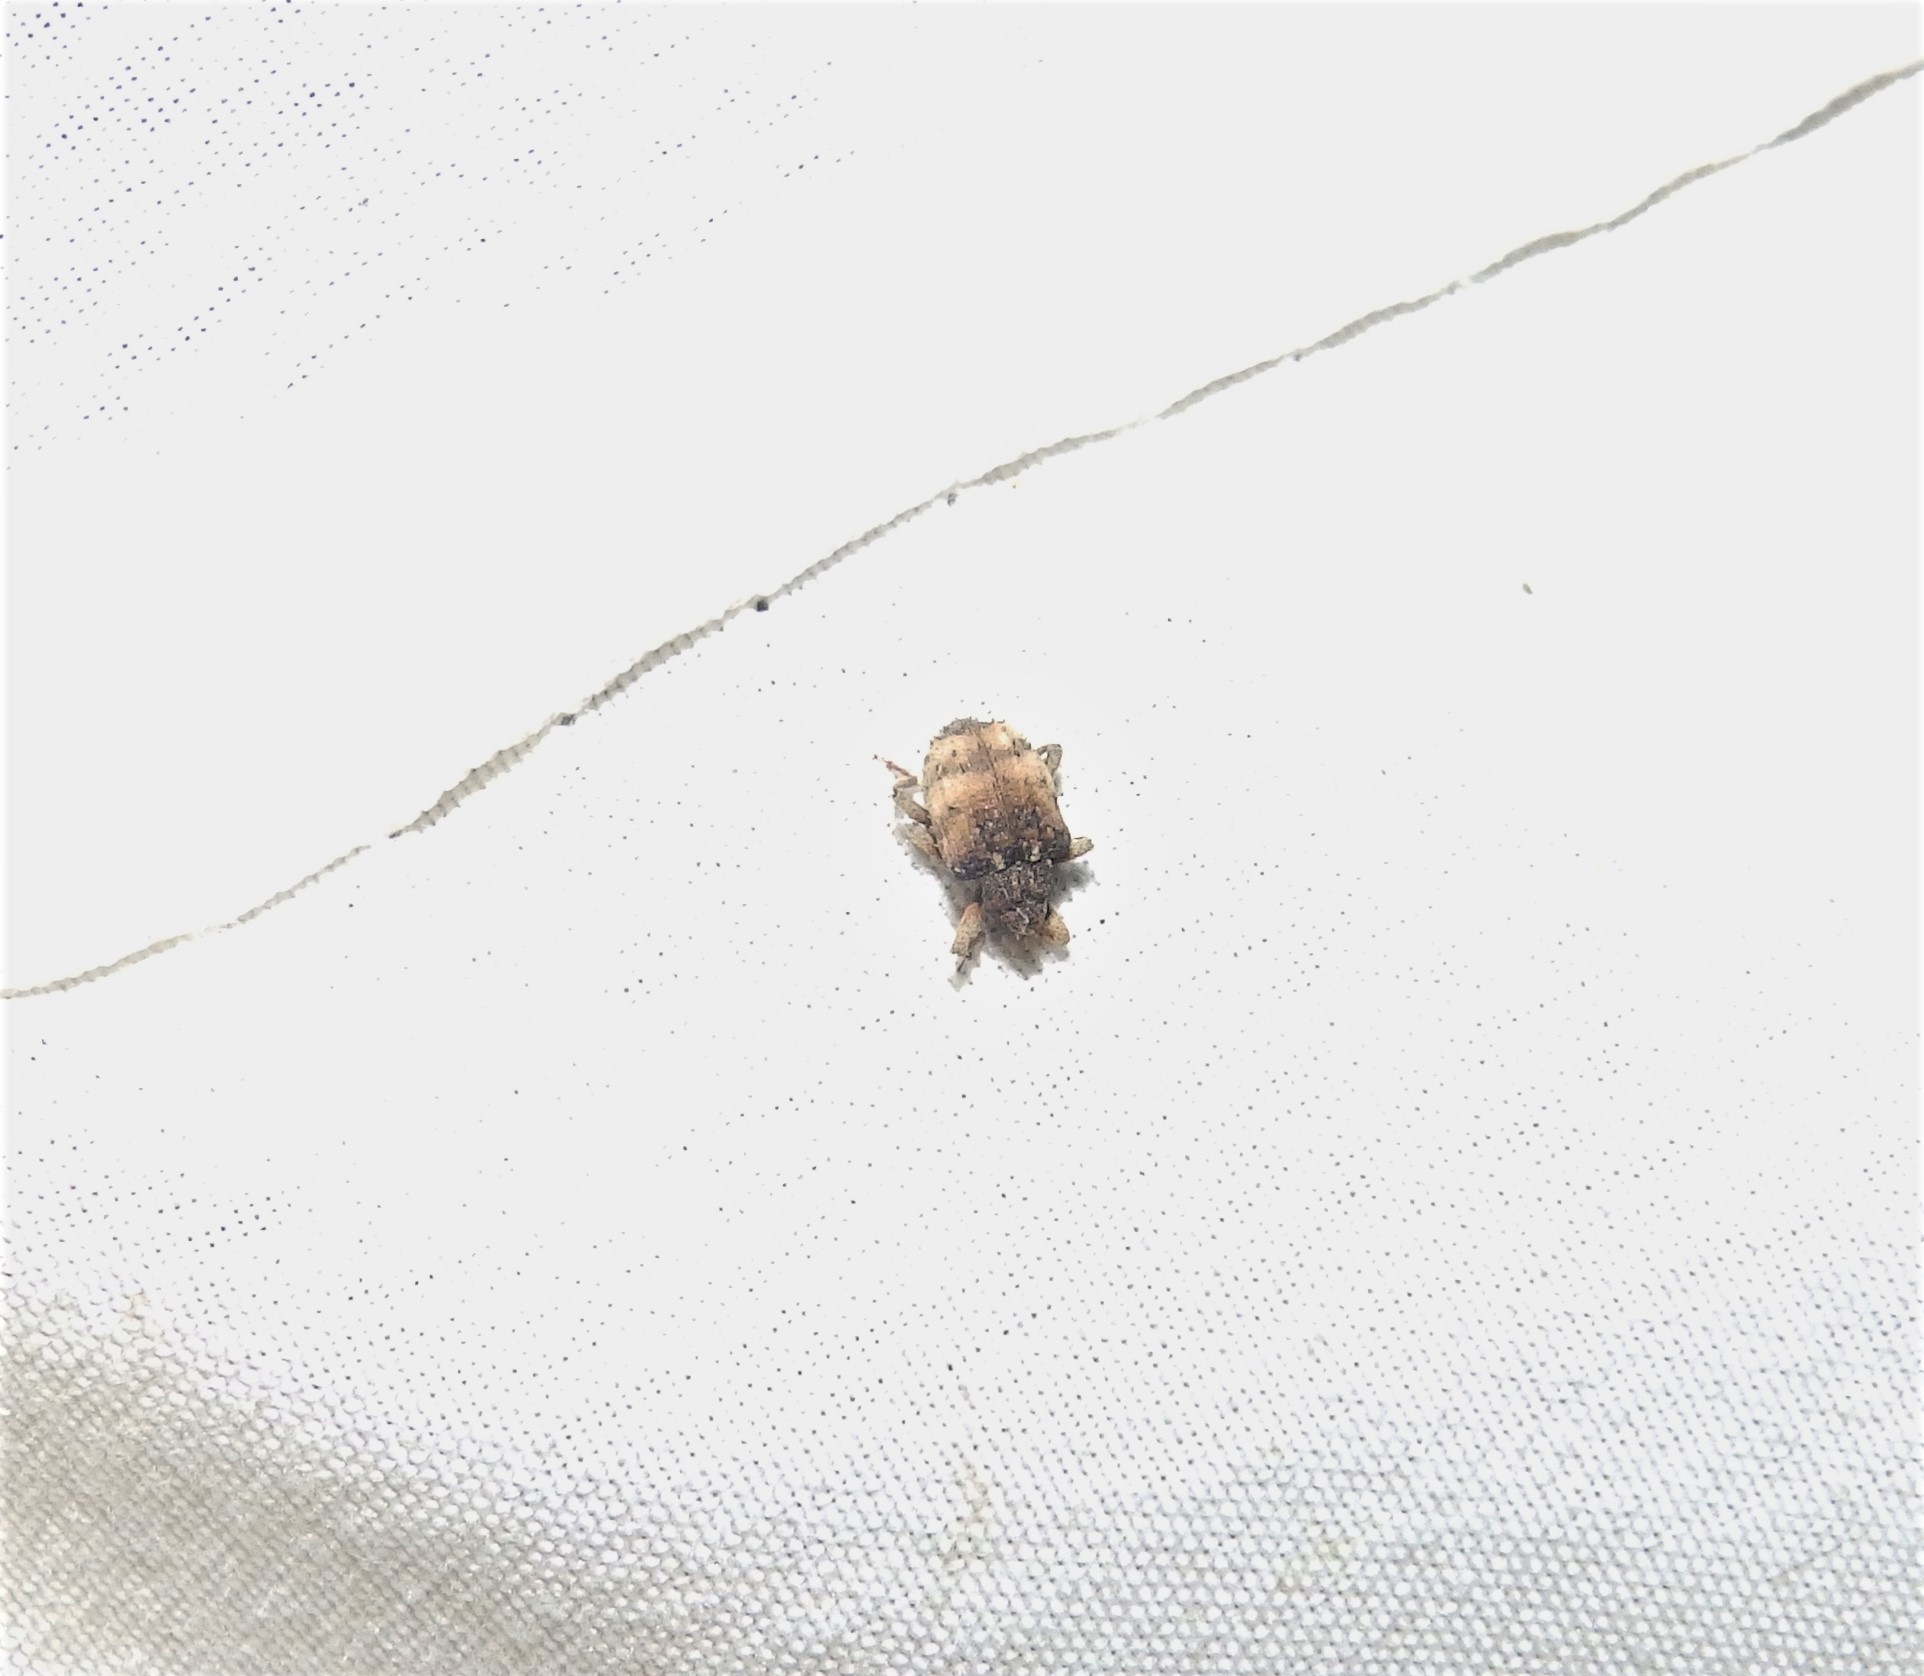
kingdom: Animalia
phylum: Arthropoda
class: Insecta
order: Coleoptera
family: Curculionidae
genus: Phyrdenus
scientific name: Phyrdenus divergens
